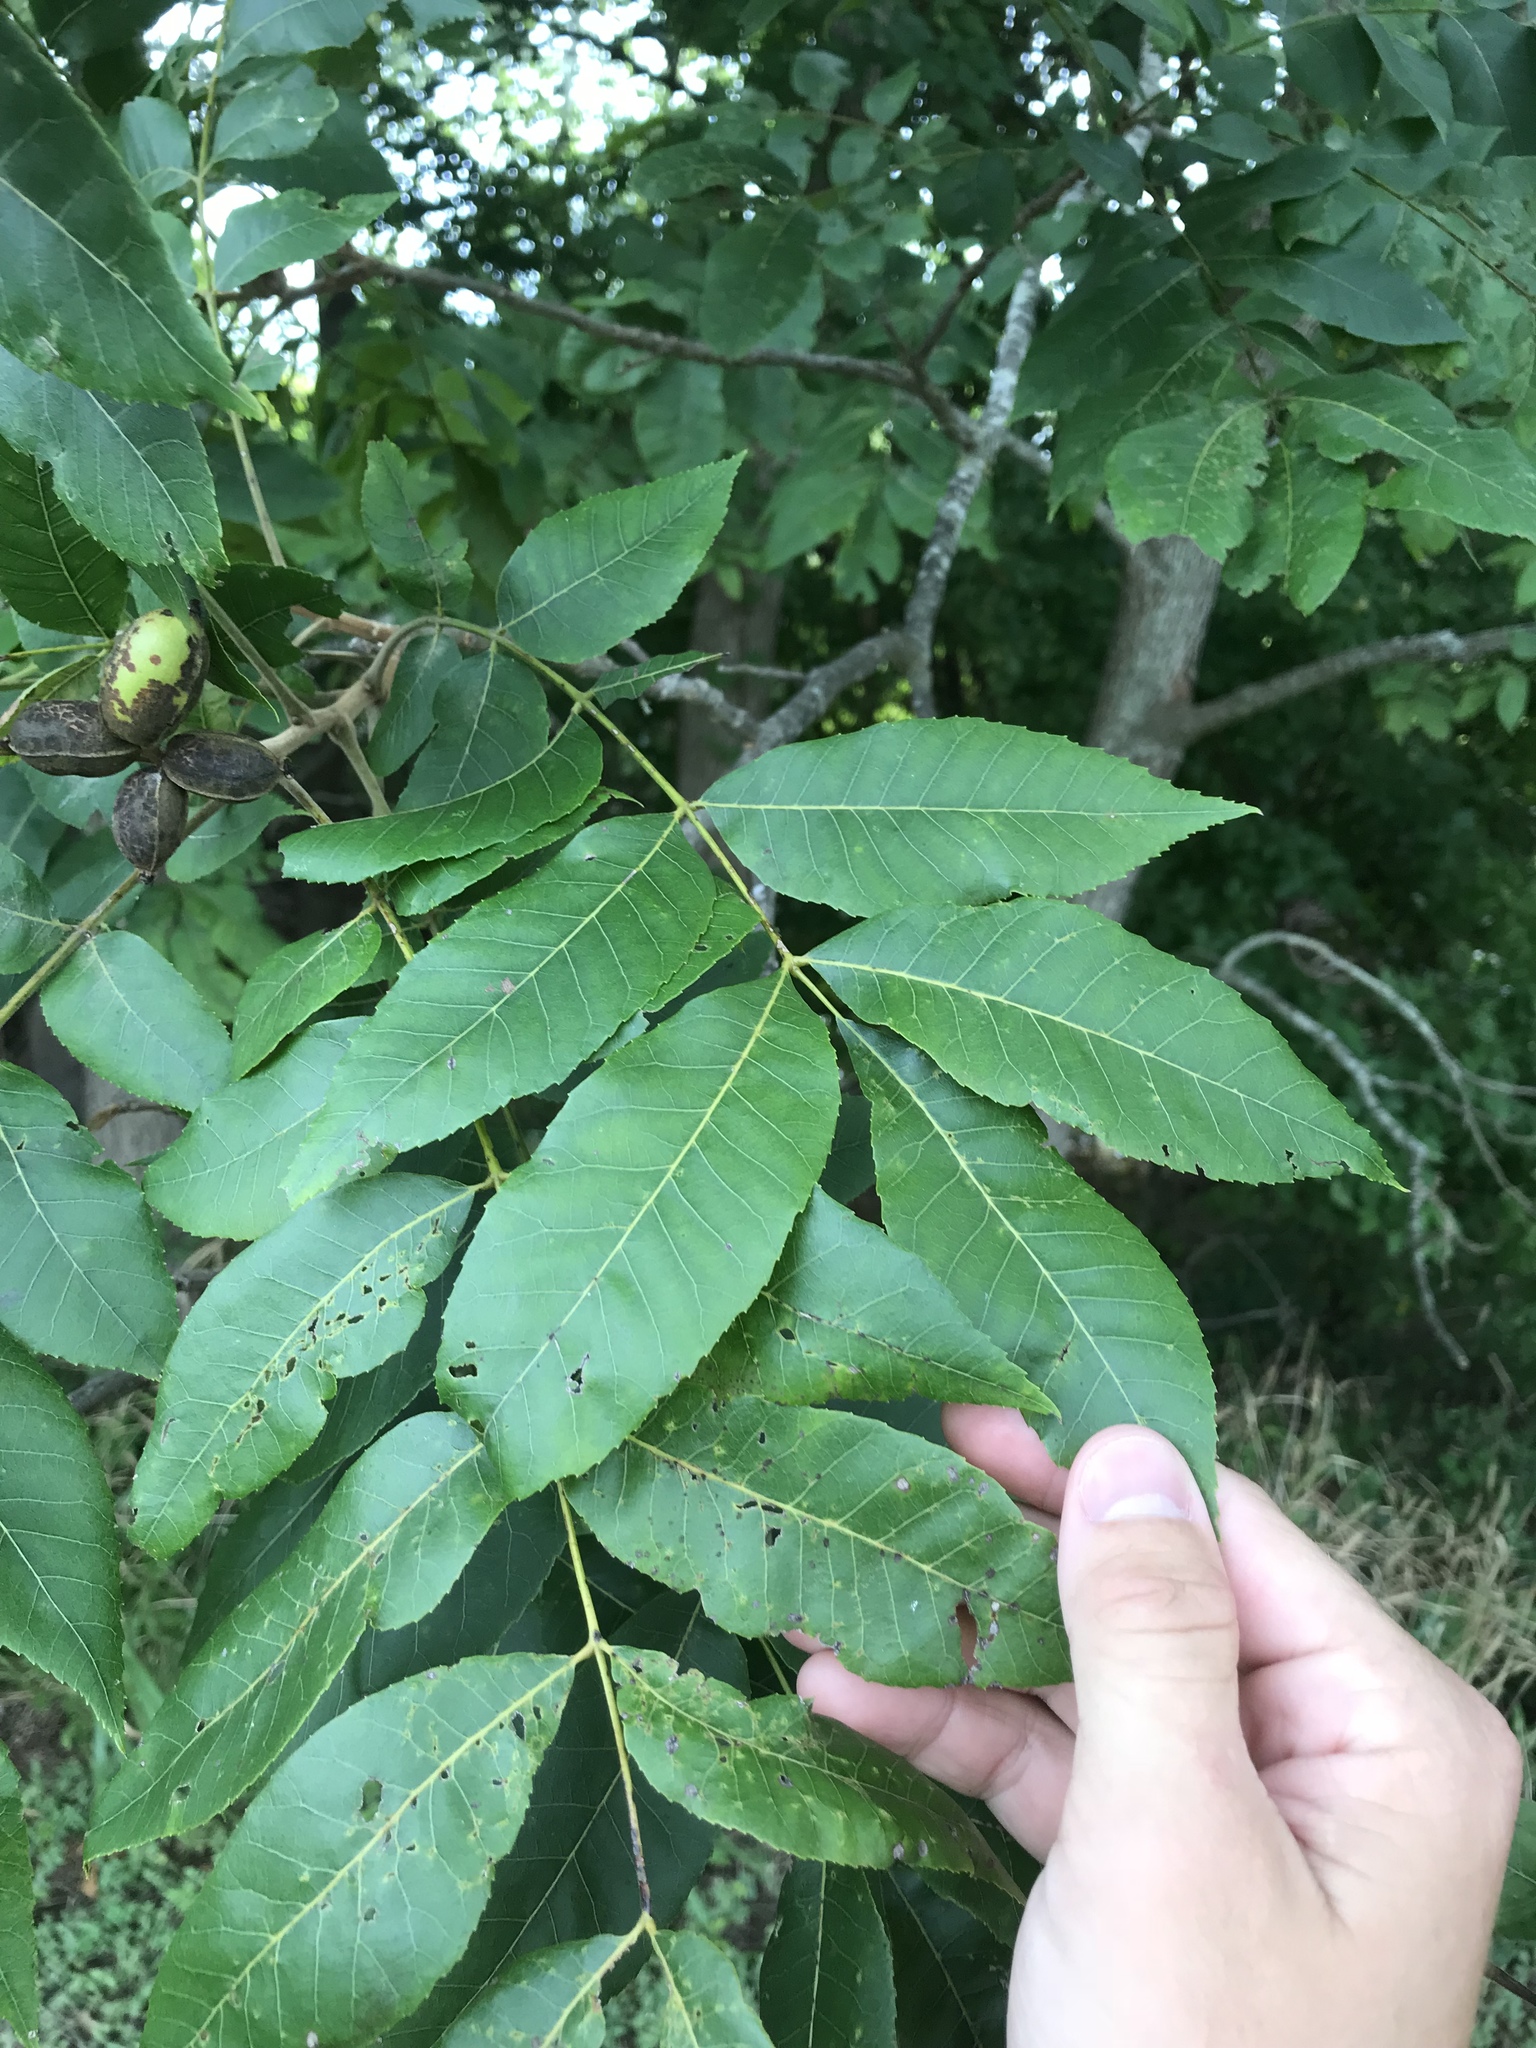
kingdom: Plantae
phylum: Tracheophyta
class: Magnoliopsida
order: Fagales
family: Juglandaceae
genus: Carya
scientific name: Carya illinoinensis
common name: Pecan
